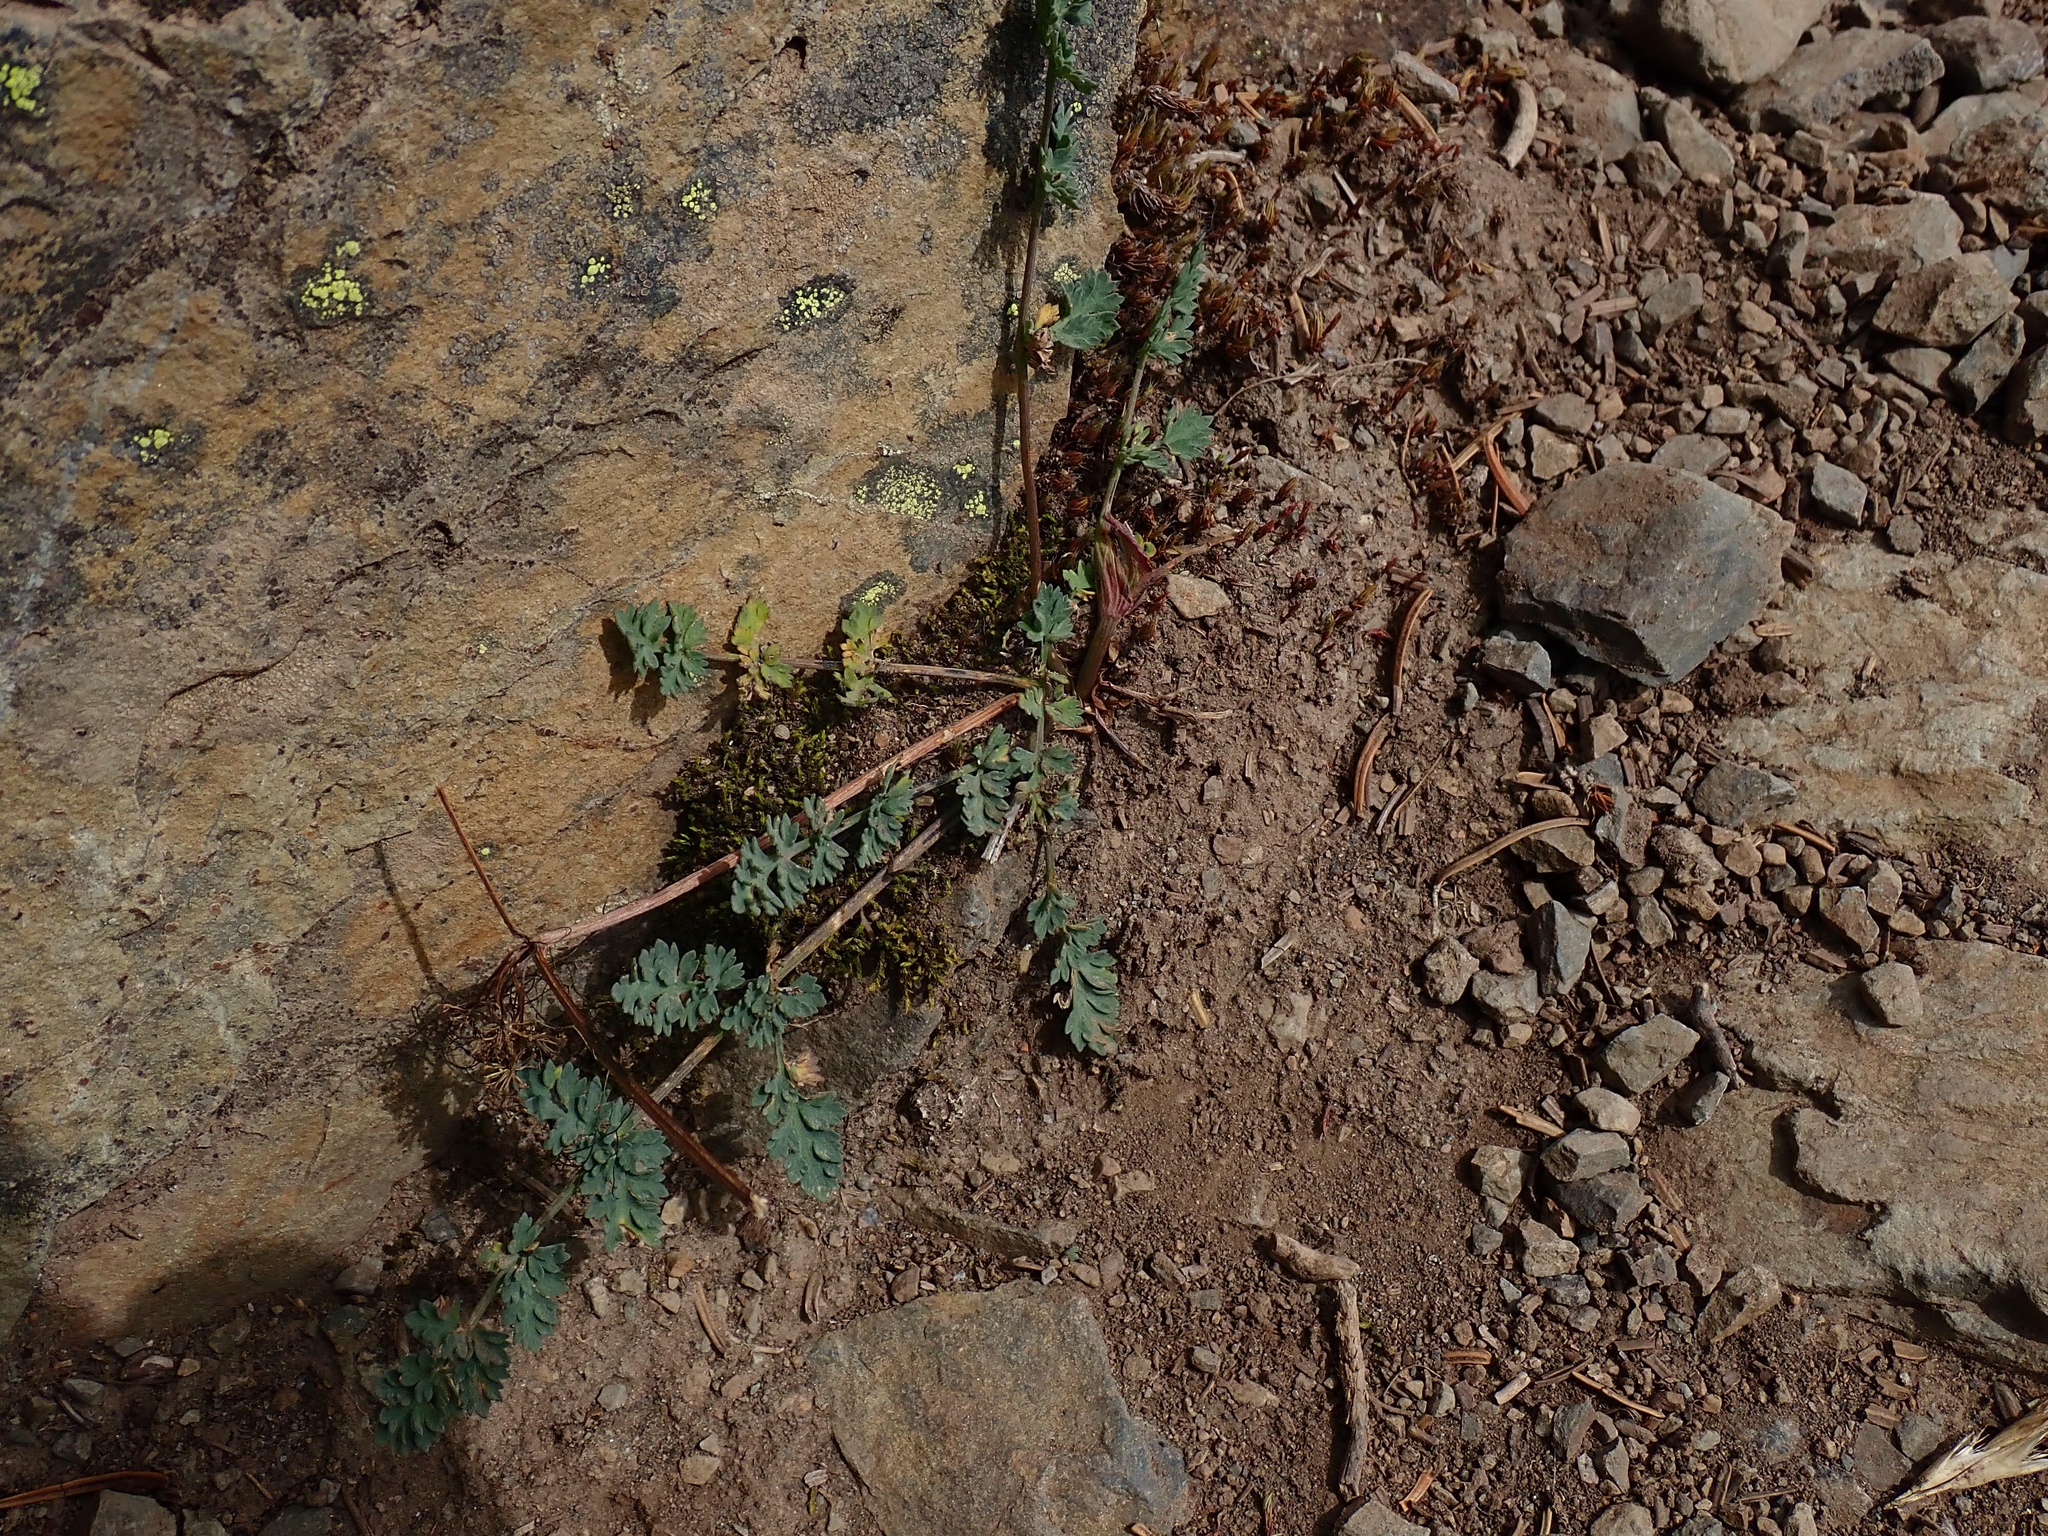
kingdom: Plantae
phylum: Tracheophyta
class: Magnoliopsida
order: Apiales
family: Apiaceae
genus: Lomatium
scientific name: Lomatium martindalei
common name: Cascade desert-parsley
